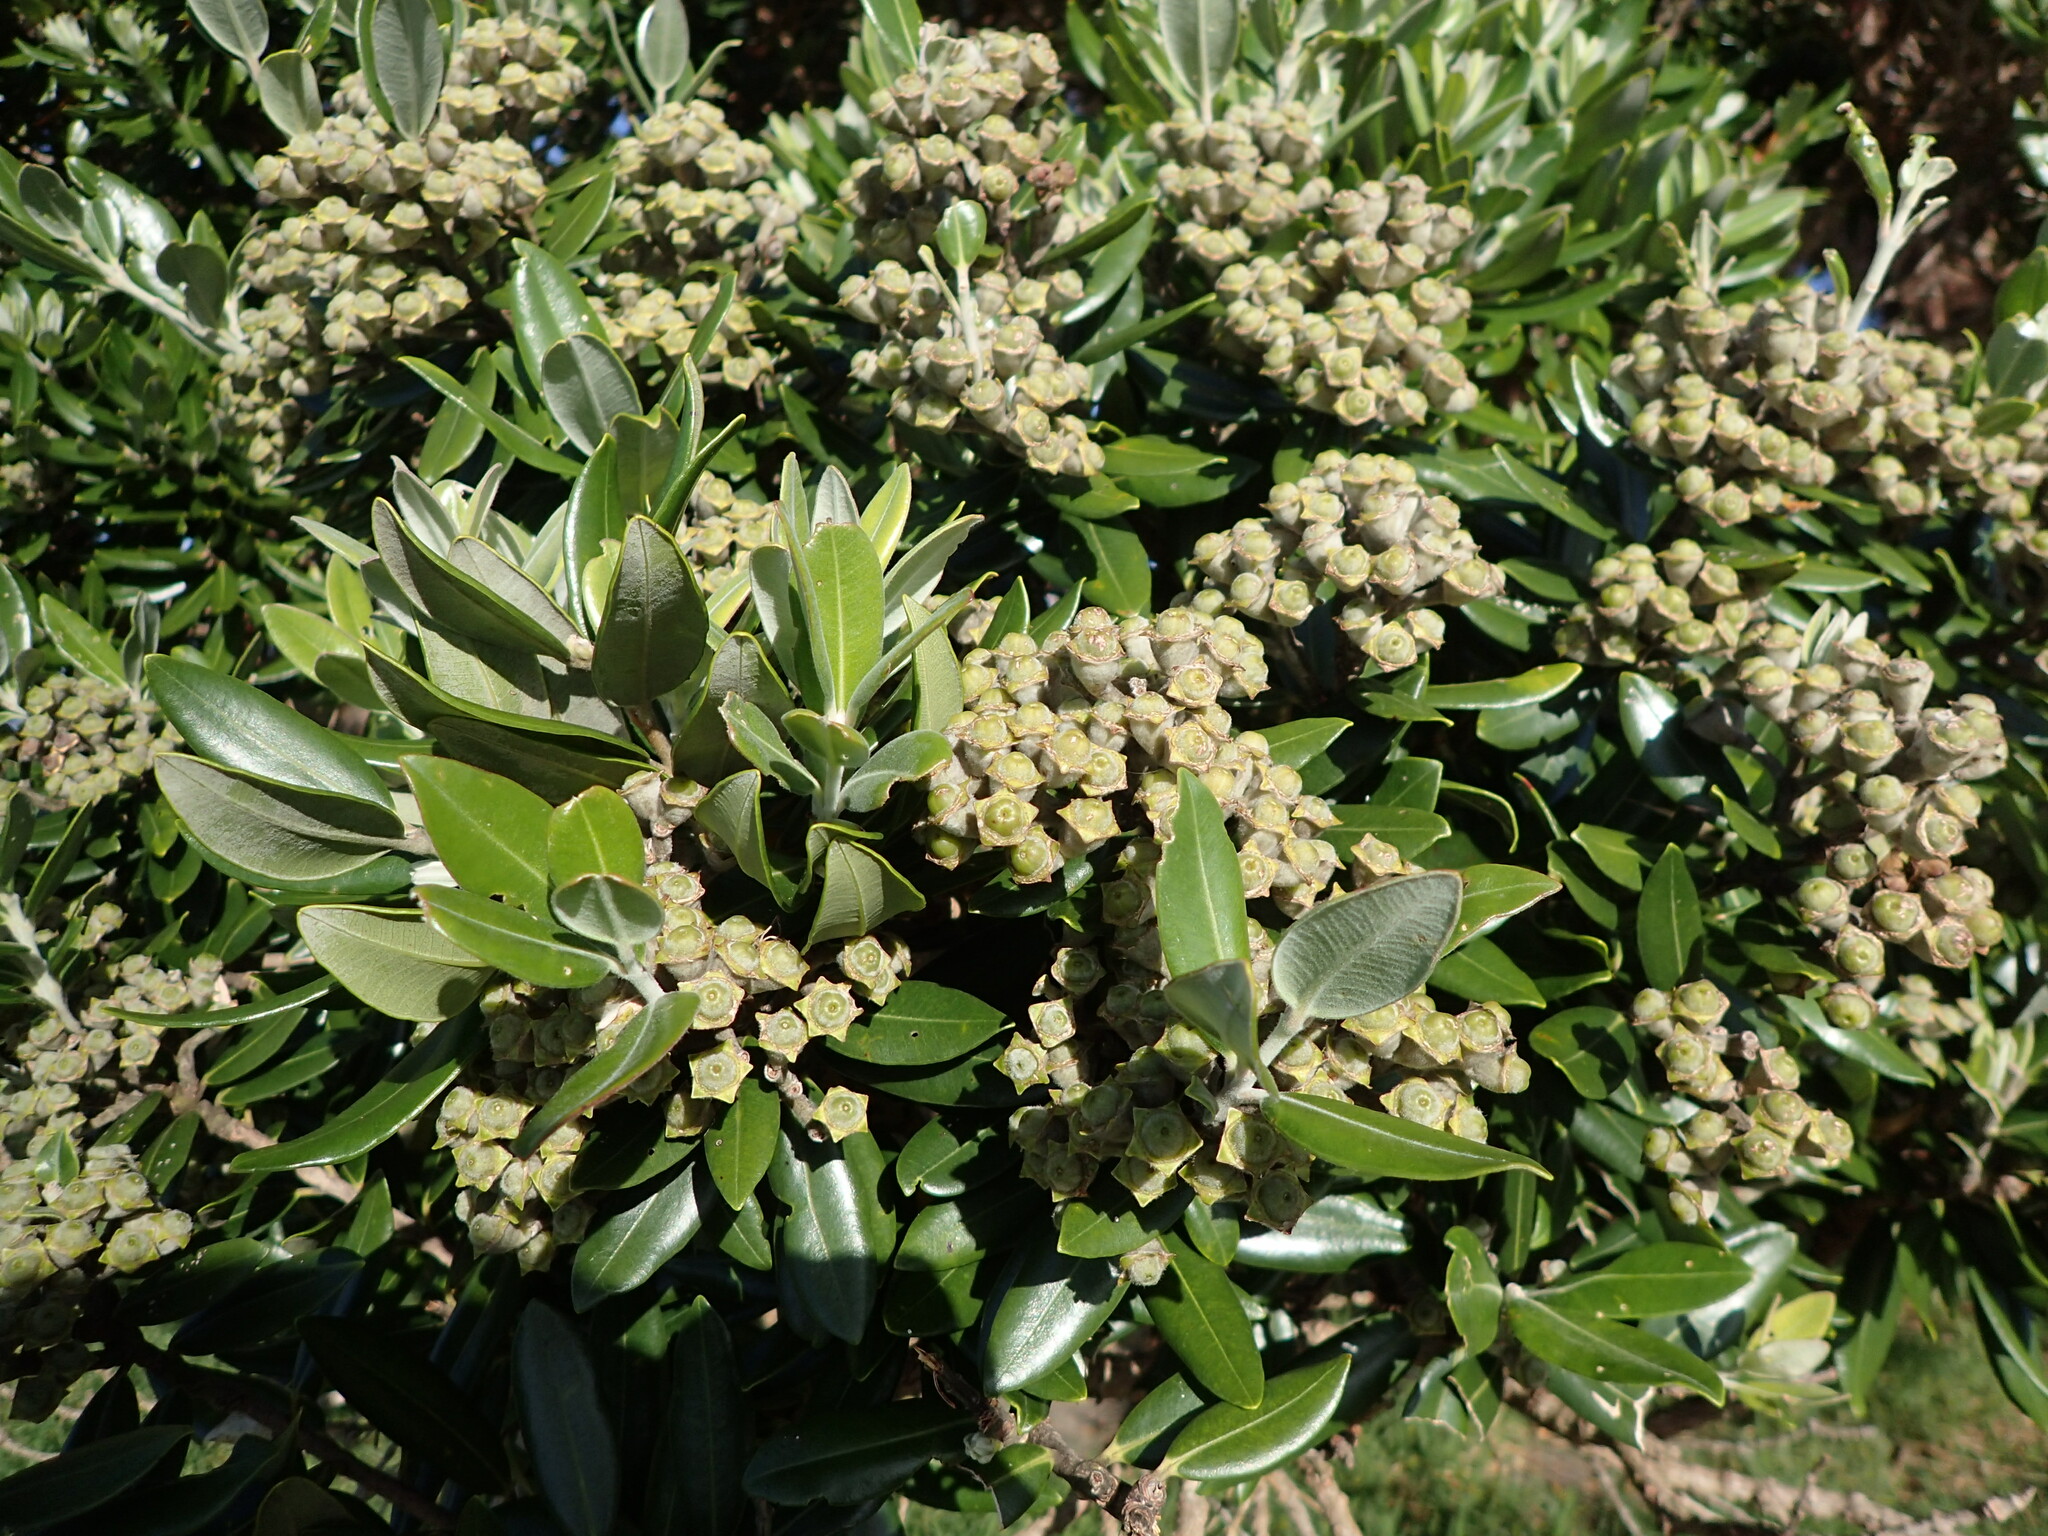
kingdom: Plantae
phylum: Tracheophyta
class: Magnoliopsida
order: Myrtales
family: Myrtaceae
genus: Metrosideros
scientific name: Metrosideros excelsa
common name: New zealand christmastree
